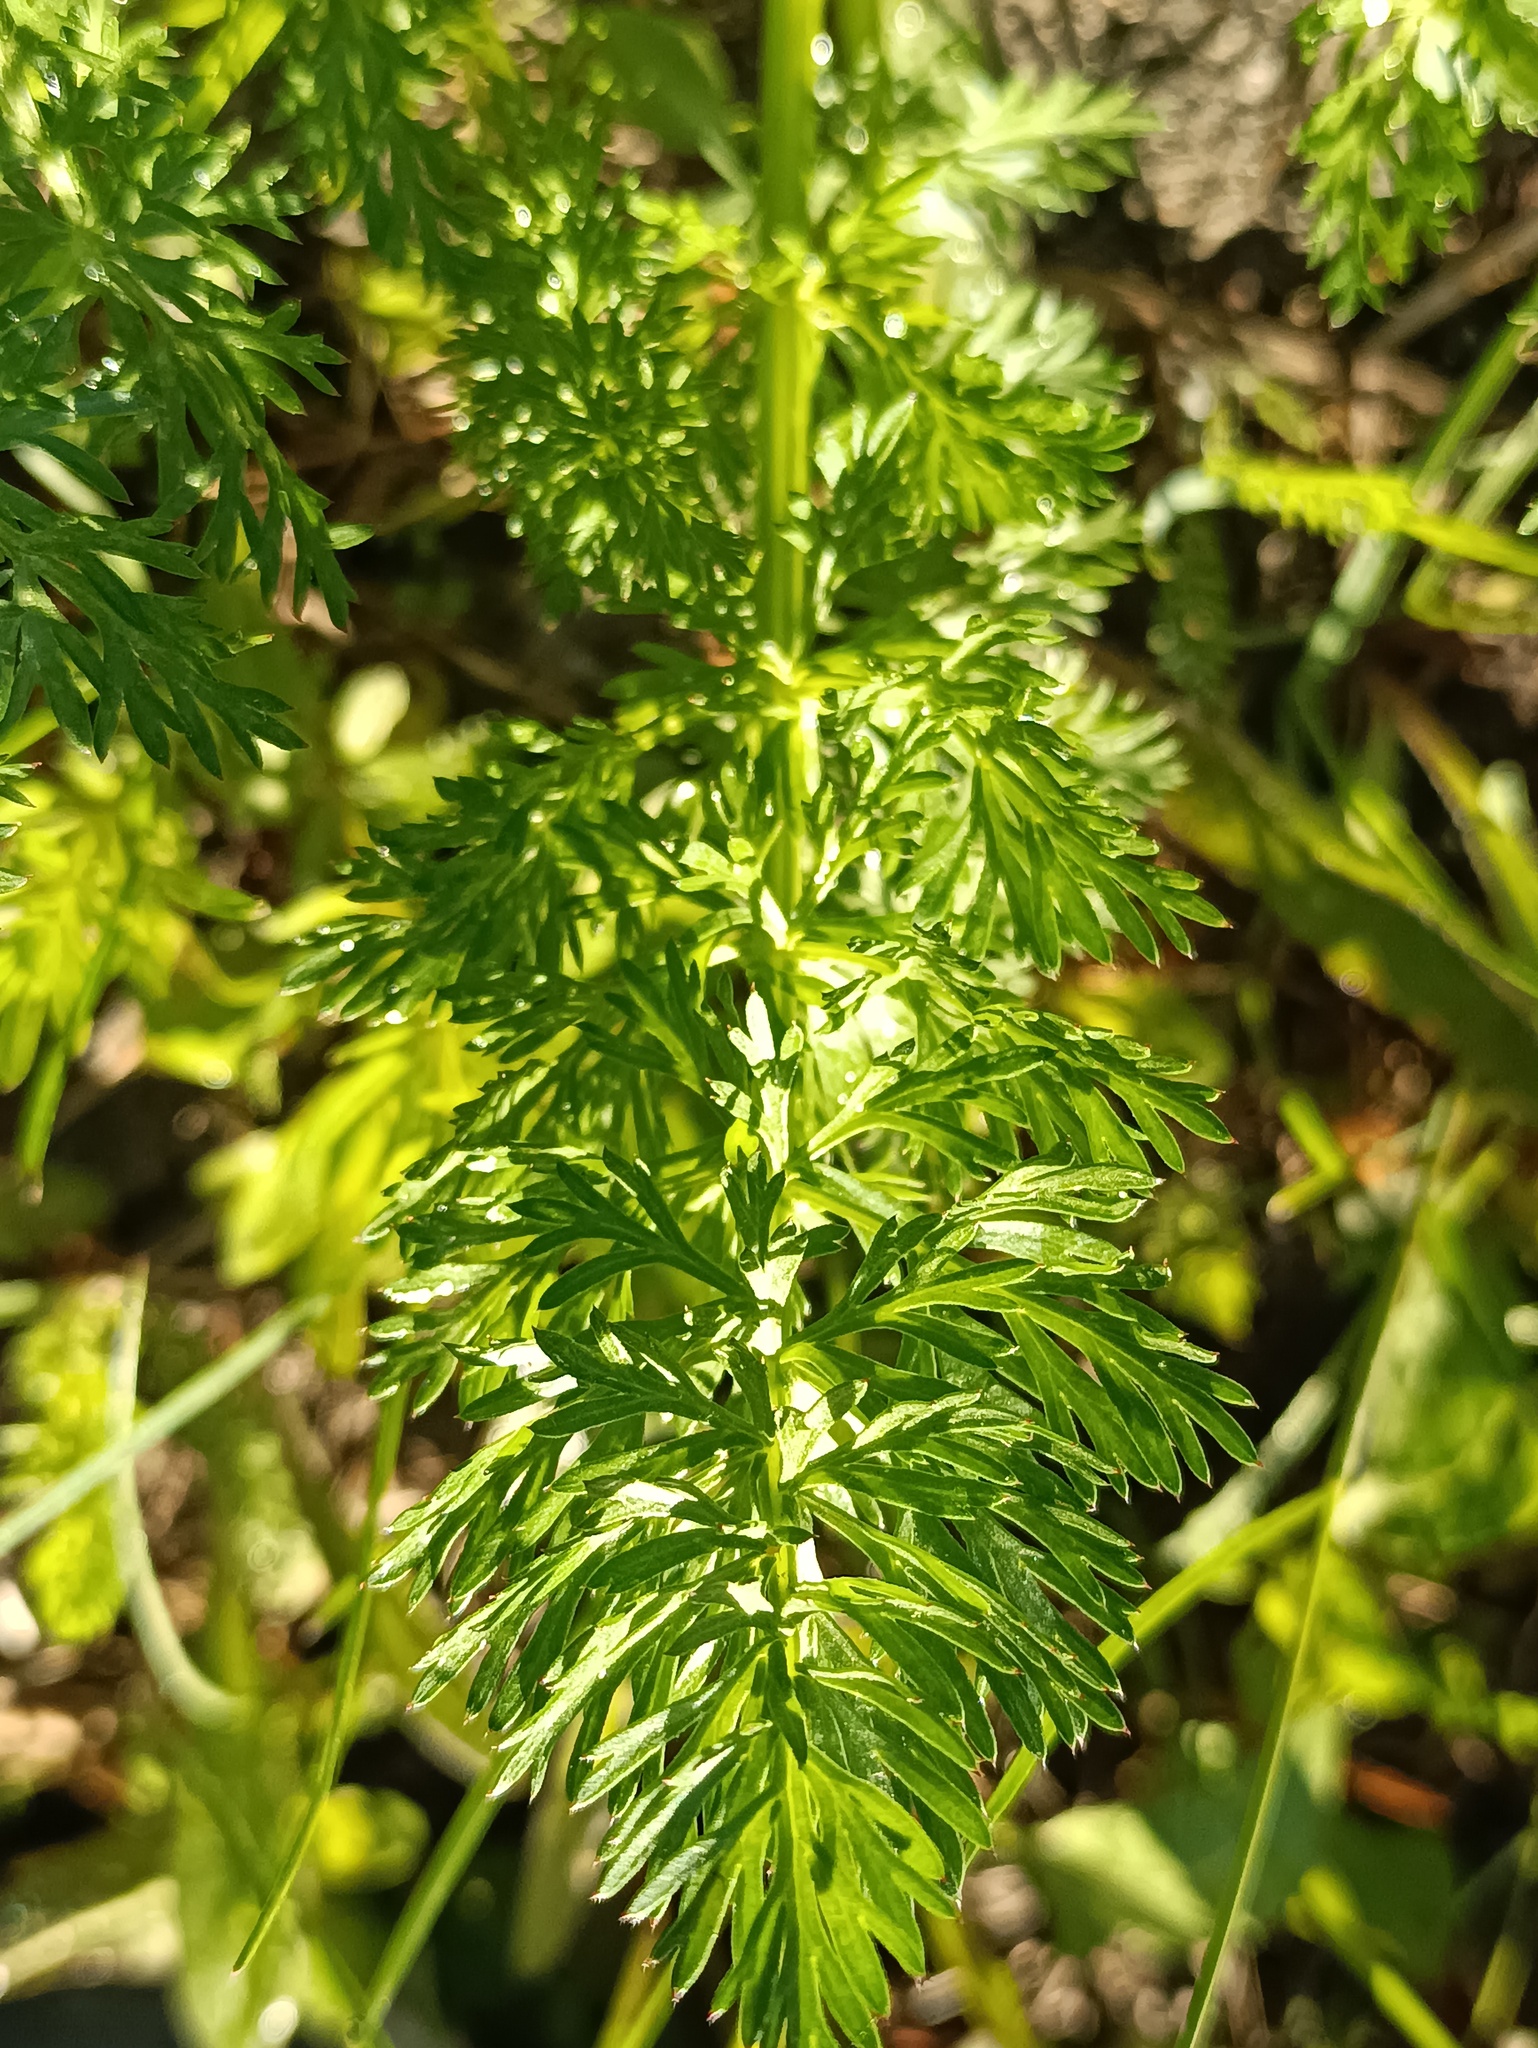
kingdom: Plantae
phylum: Tracheophyta
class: Magnoliopsida
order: Apiales
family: Apiaceae
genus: Carum
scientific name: Carum carvi
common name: Caraway
